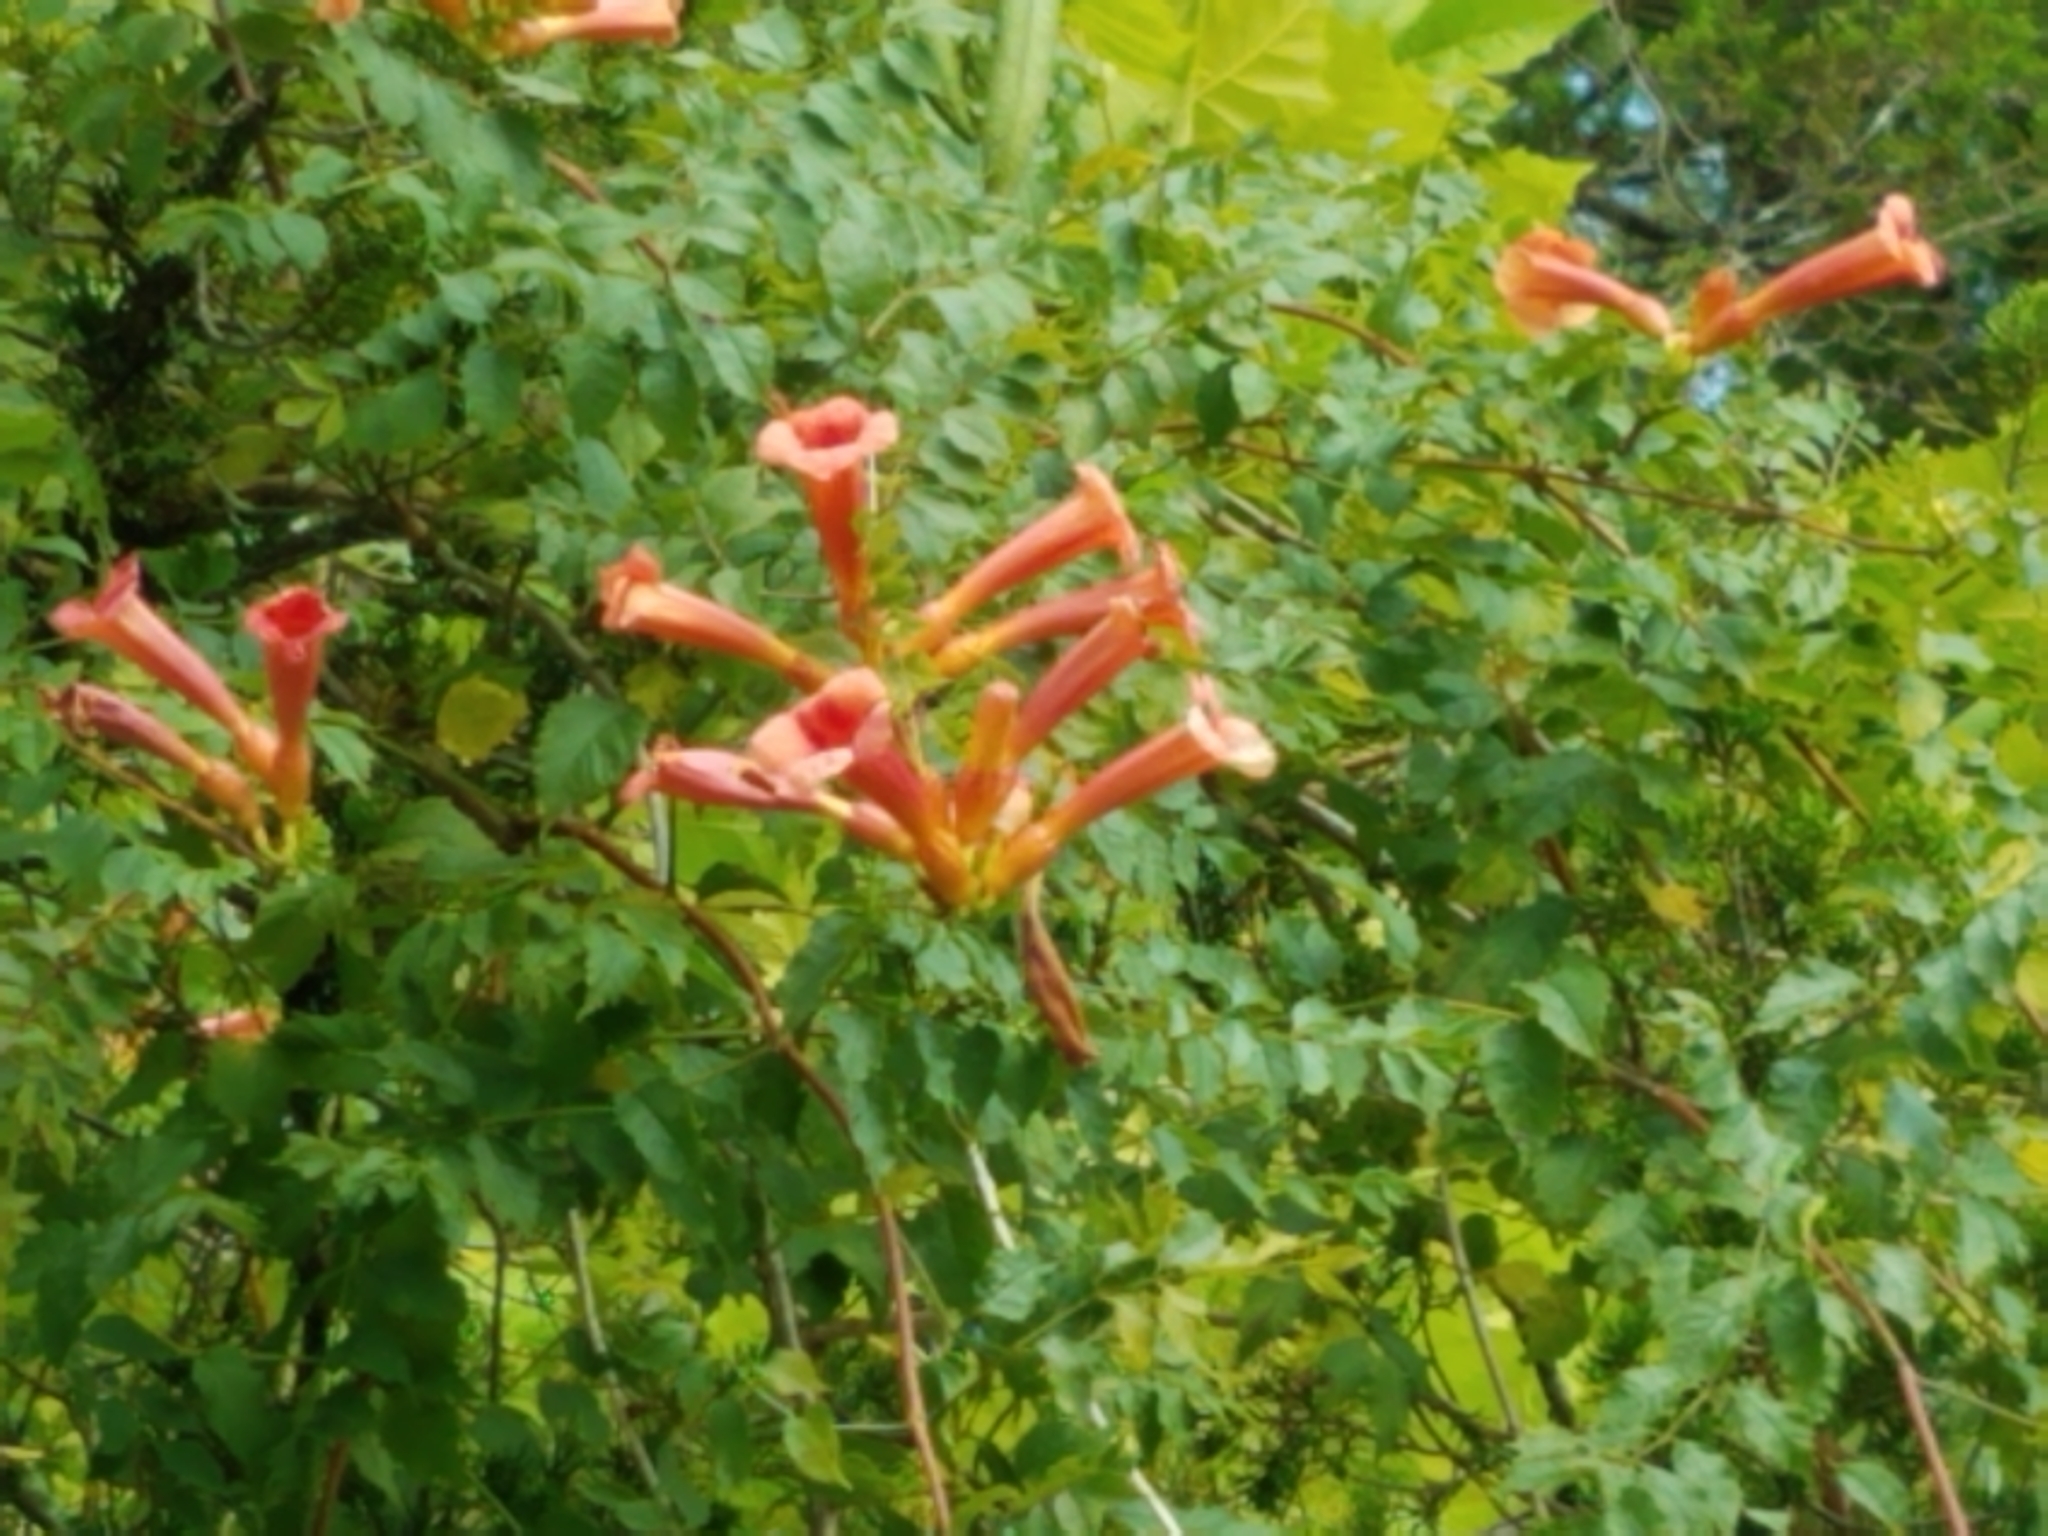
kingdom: Plantae
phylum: Tracheophyta
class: Magnoliopsida
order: Lamiales
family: Bignoniaceae
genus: Campsis
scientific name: Campsis radicans
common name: Trumpet-creeper
